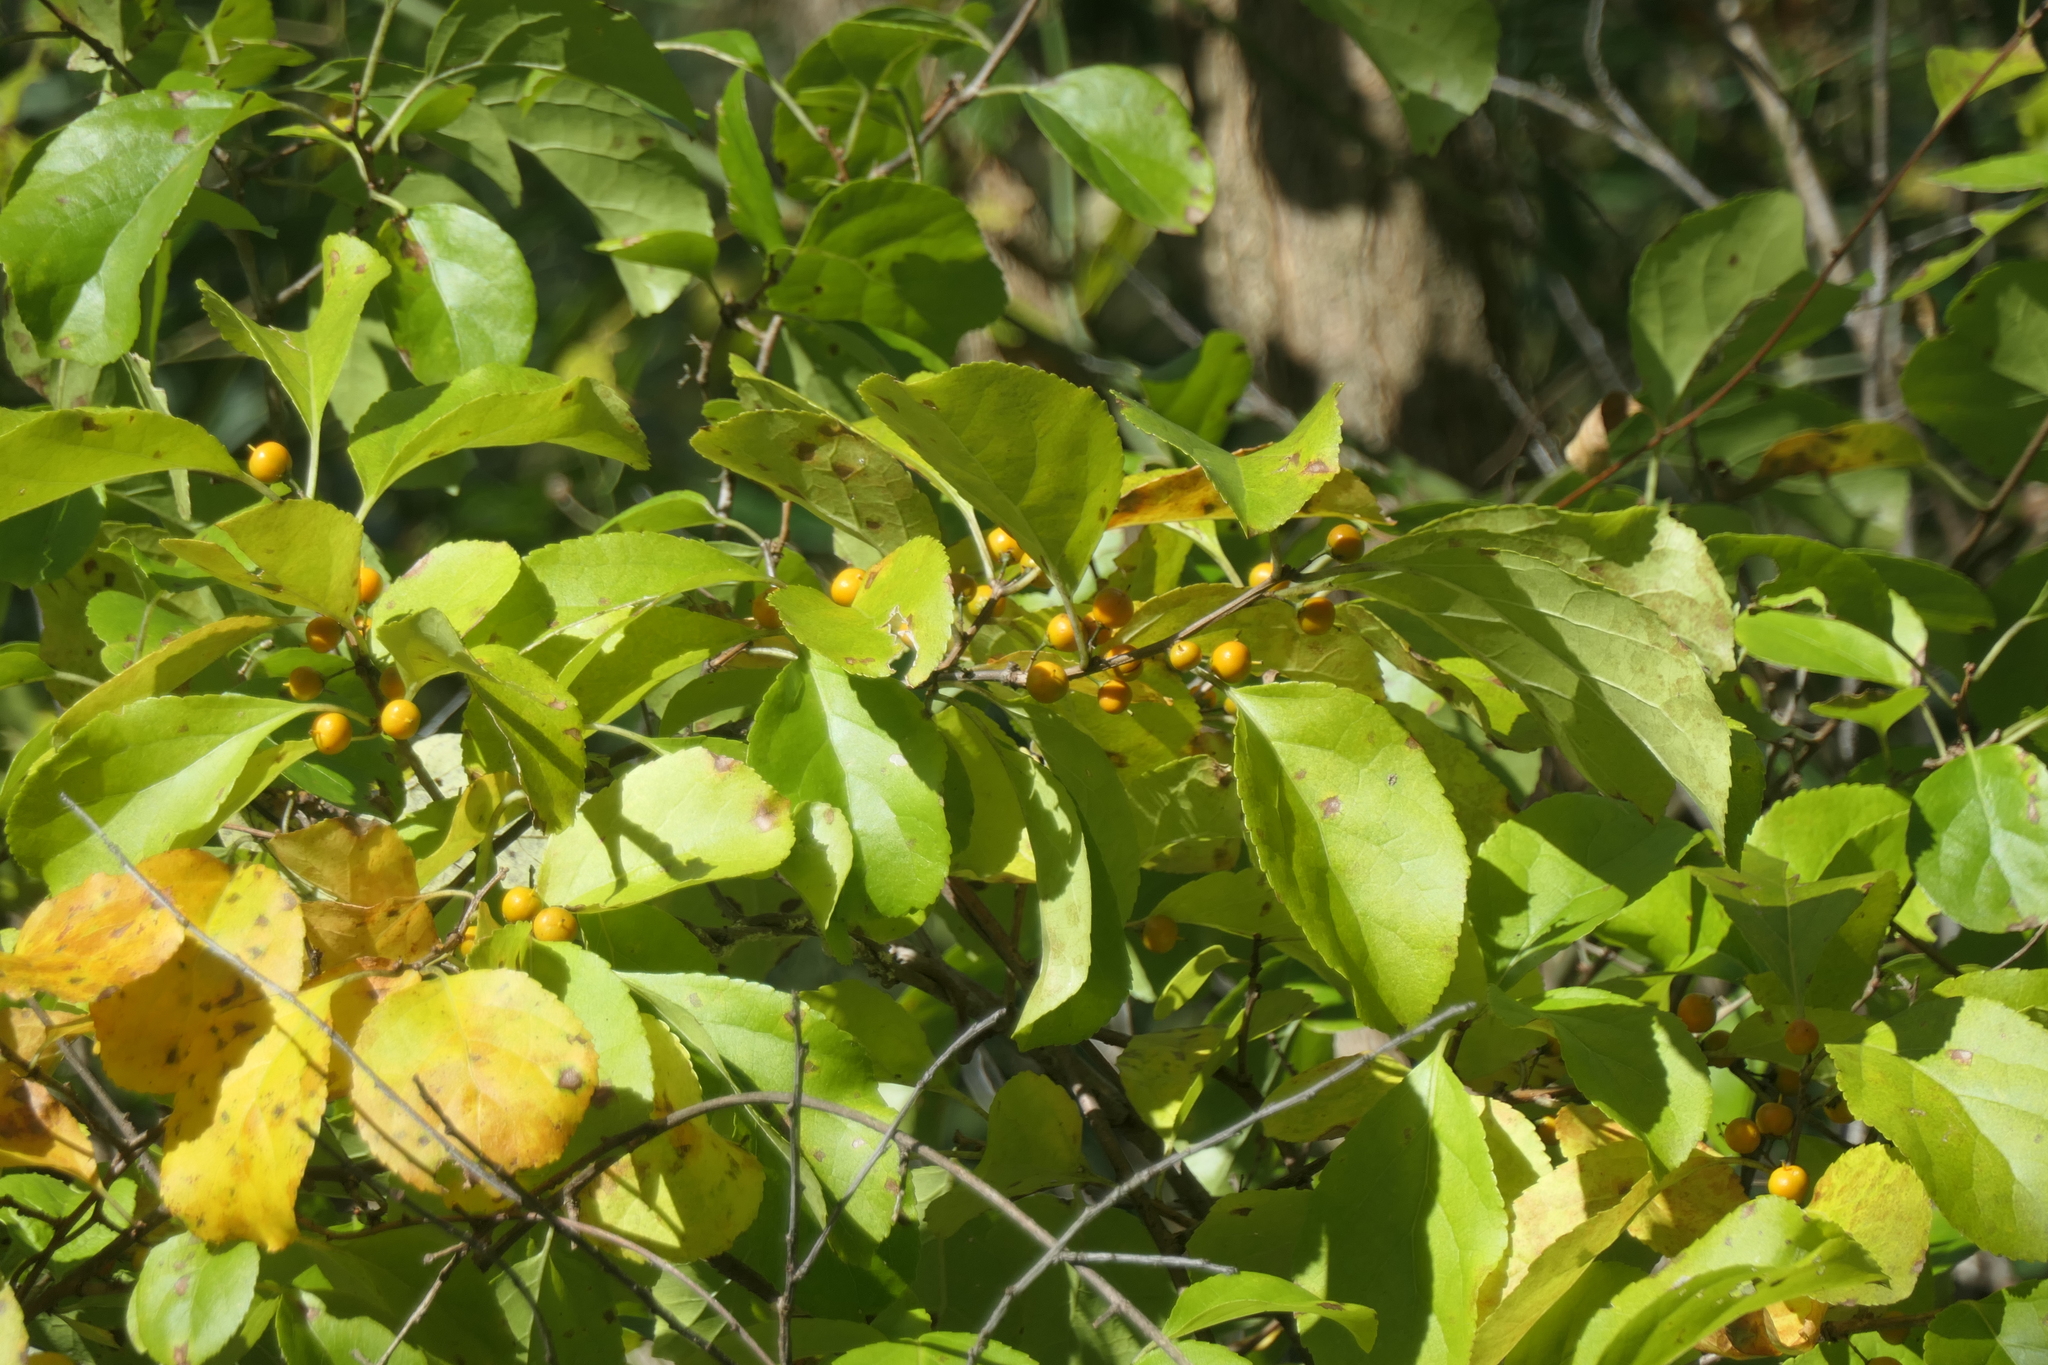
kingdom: Plantae
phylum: Tracheophyta
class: Magnoliopsida
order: Celastrales
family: Celastraceae
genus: Celastrus
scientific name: Celastrus orbiculatus
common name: Oriental bittersweet
